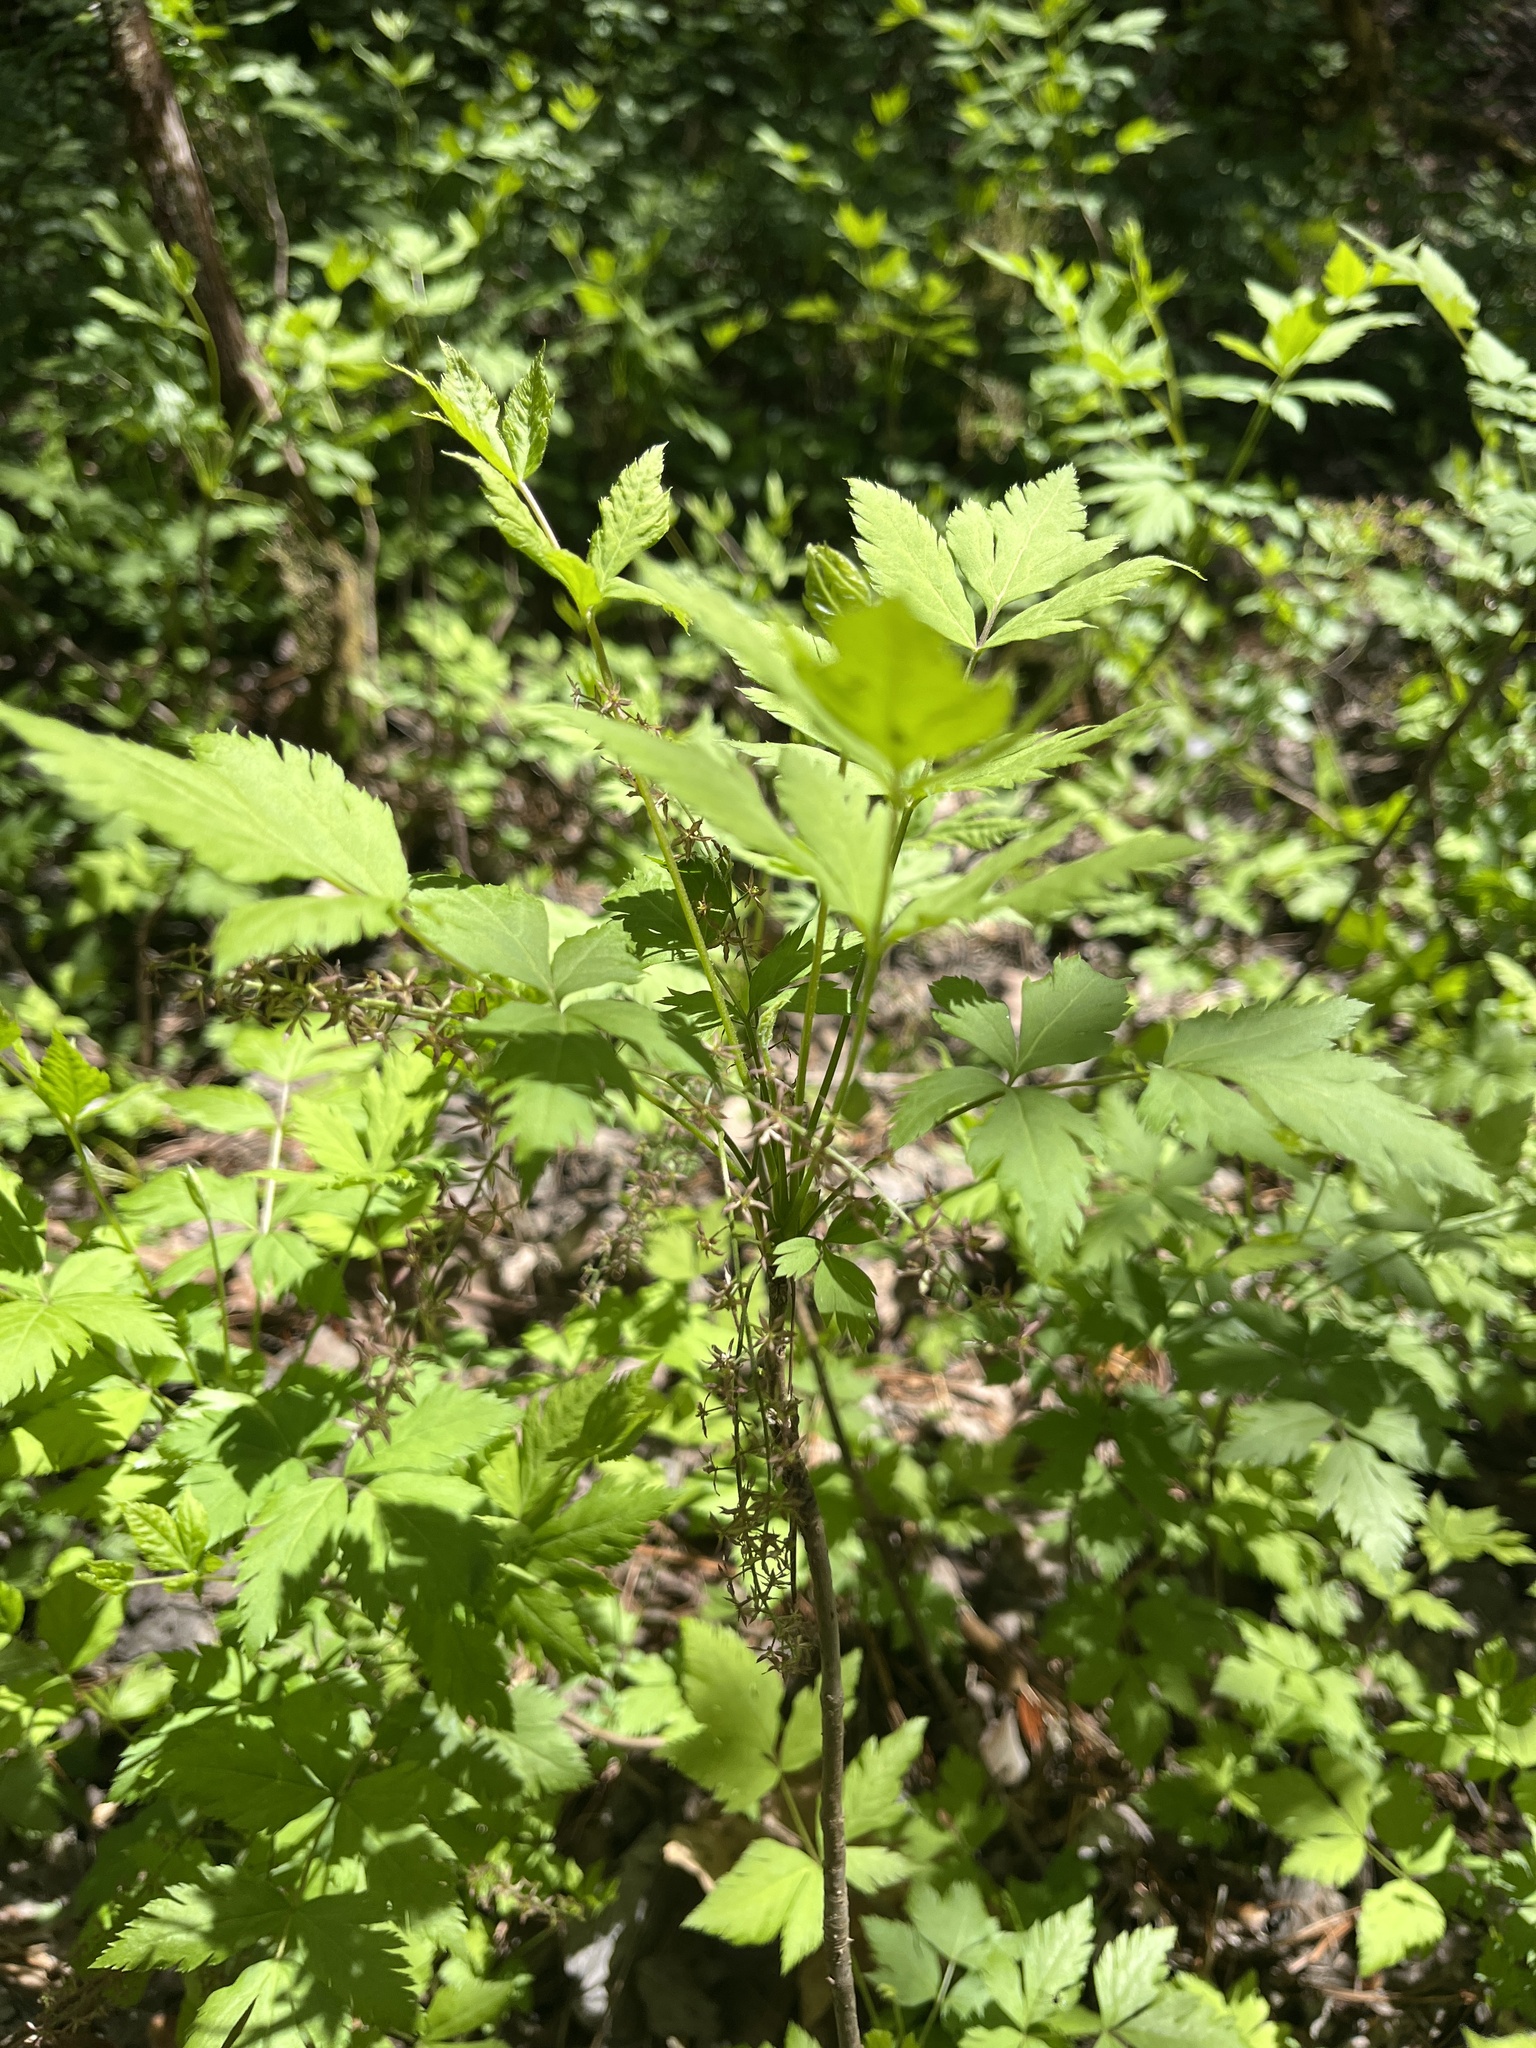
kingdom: Plantae
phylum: Tracheophyta
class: Magnoliopsida
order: Ranunculales
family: Ranunculaceae
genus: Xanthorhiza
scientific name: Xanthorhiza simplicissima
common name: Yellowroot
